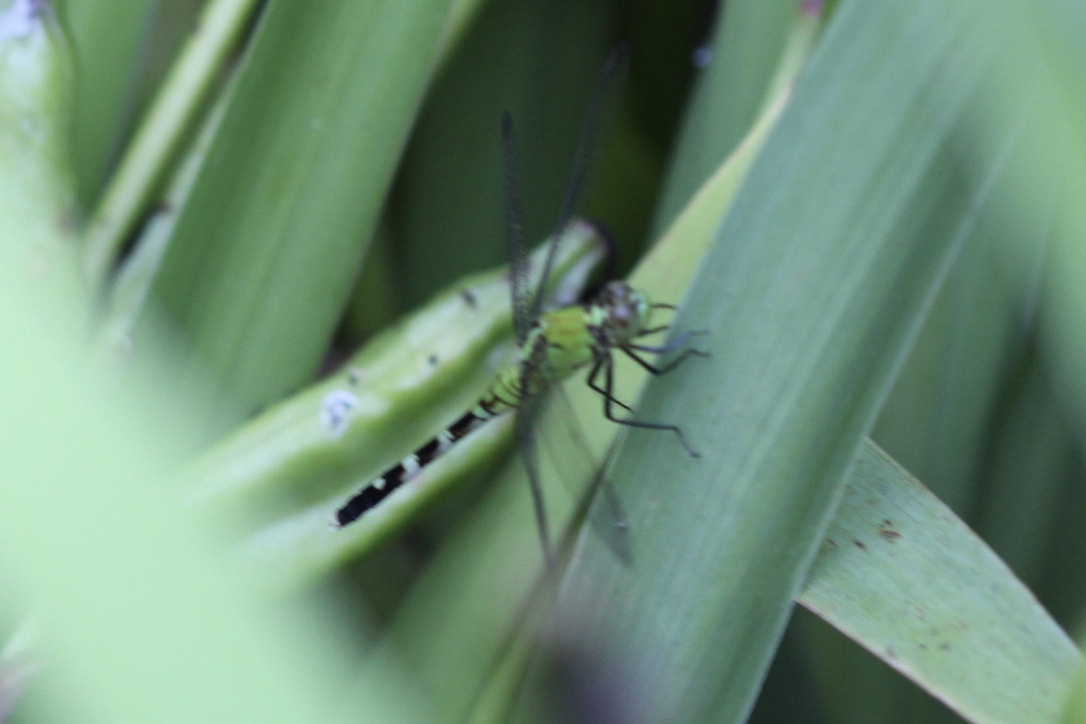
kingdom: Animalia
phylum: Arthropoda
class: Insecta
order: Odonata
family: Libellulidae
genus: Erythemis
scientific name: Erythemis simplicicollis
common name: Eastern pondhawk
